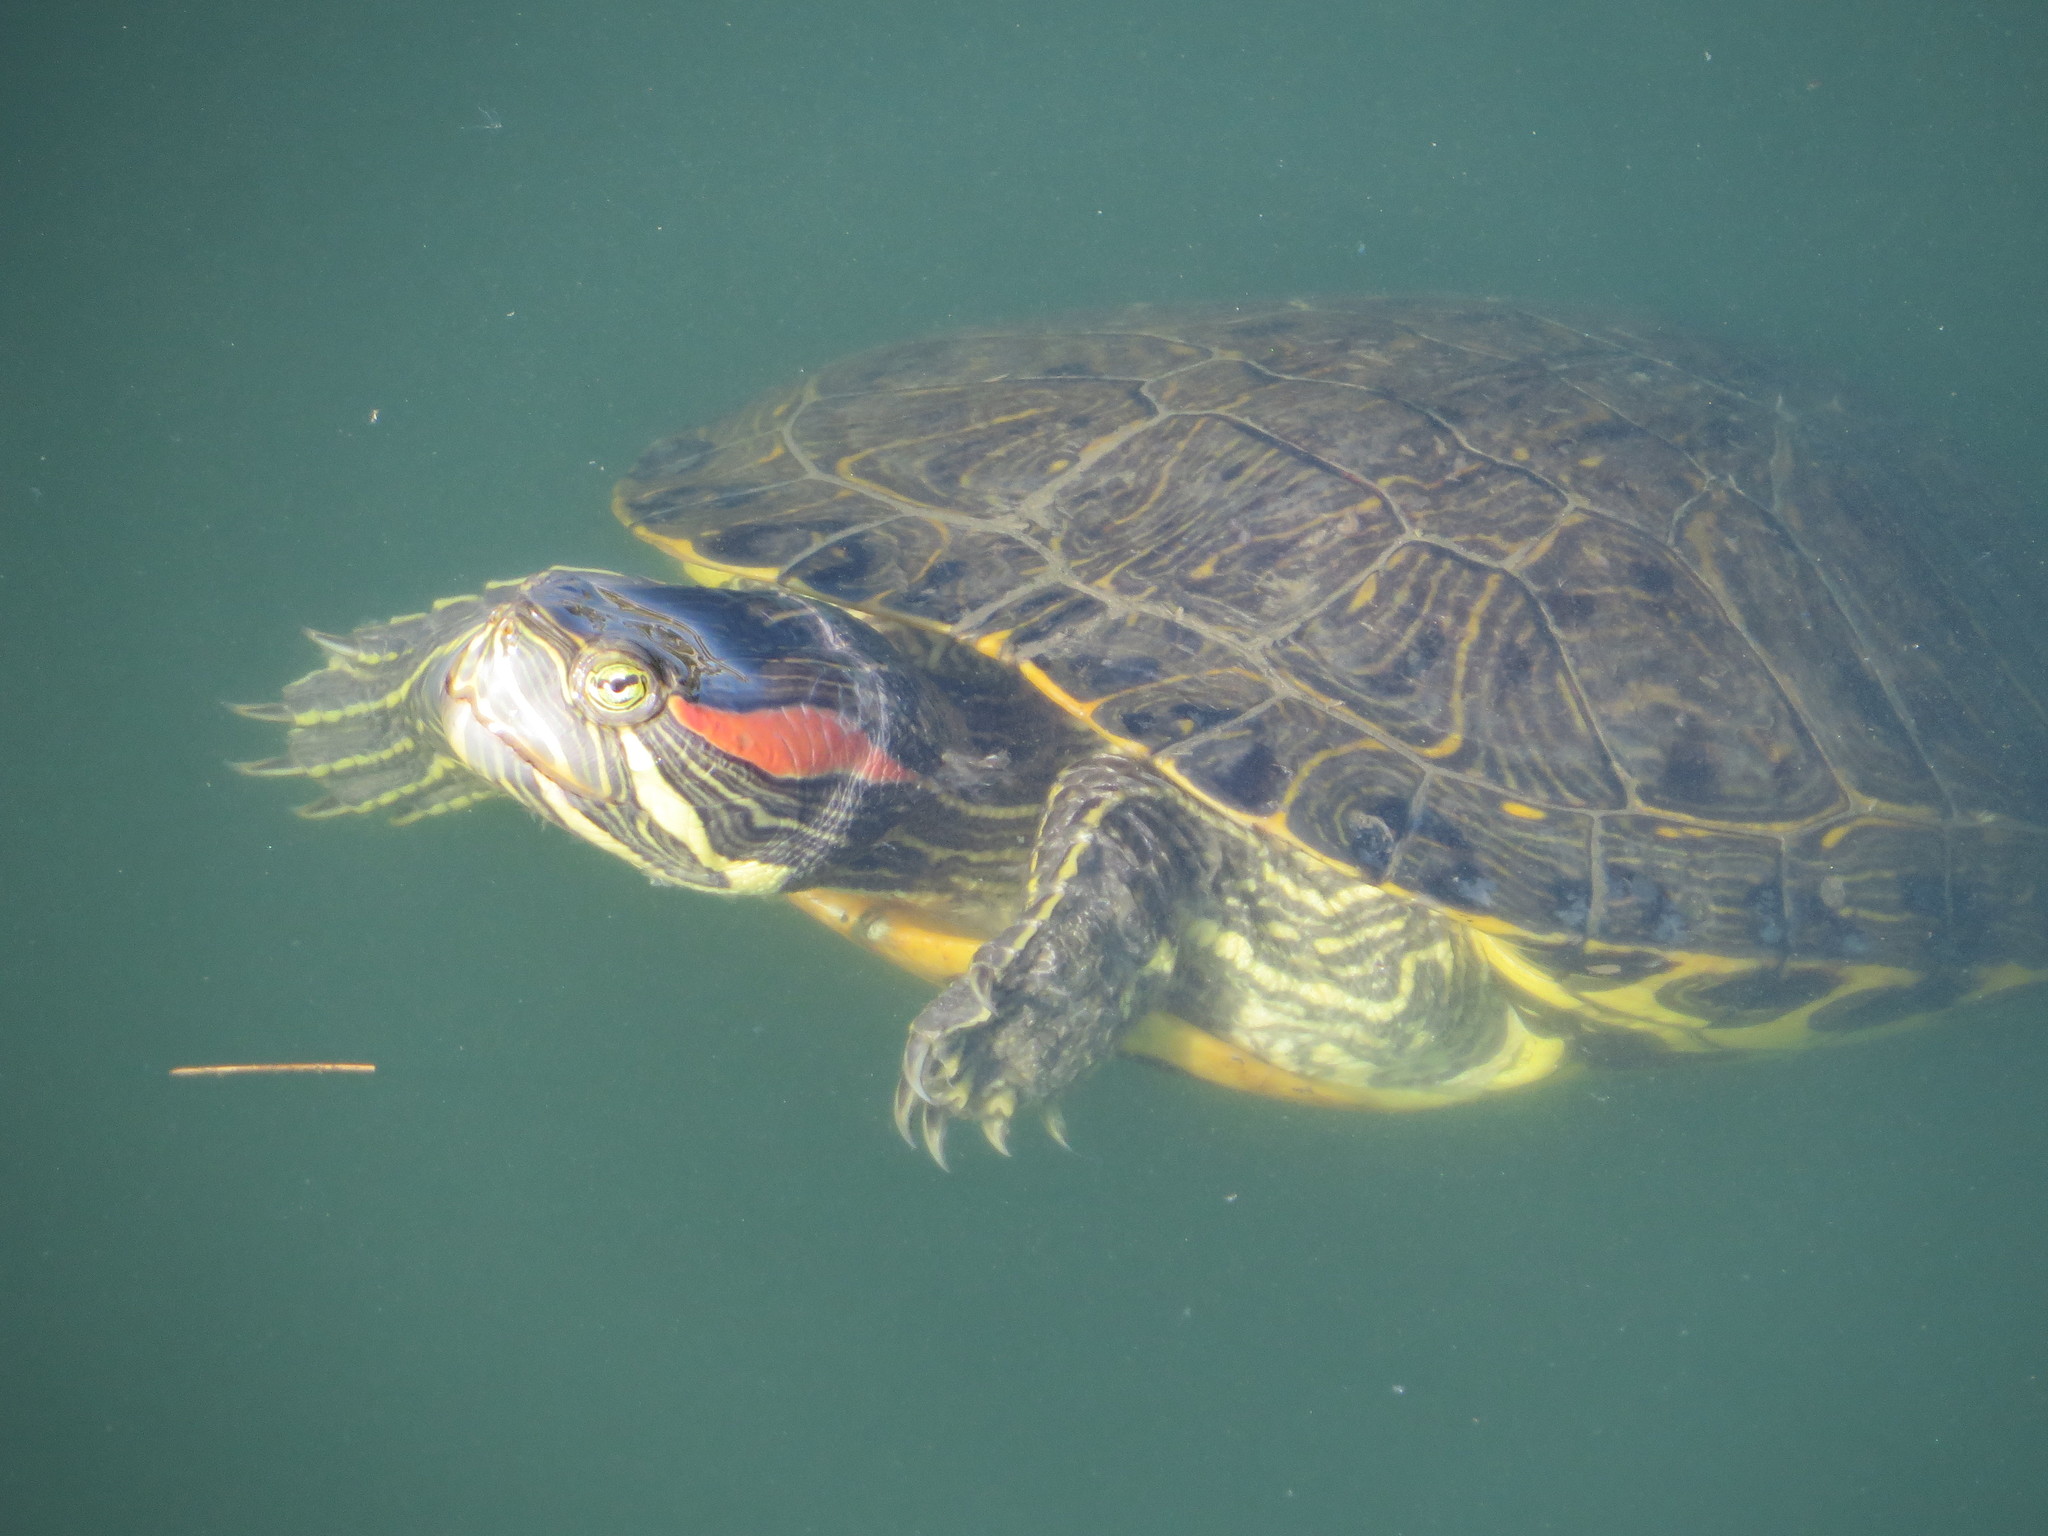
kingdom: Animalia
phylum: Chordata
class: Testudines
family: Emydidae
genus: Trachemys
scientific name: Trachemys scripta
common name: Slider
